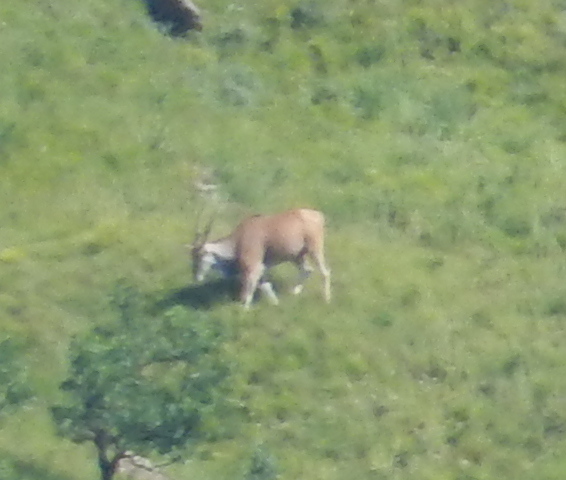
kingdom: Animalia
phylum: Chordata
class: Mammalia
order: Artiodactyla
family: Bovidae
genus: Taurotragus
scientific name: Taurotragus oryx
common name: Common eland
